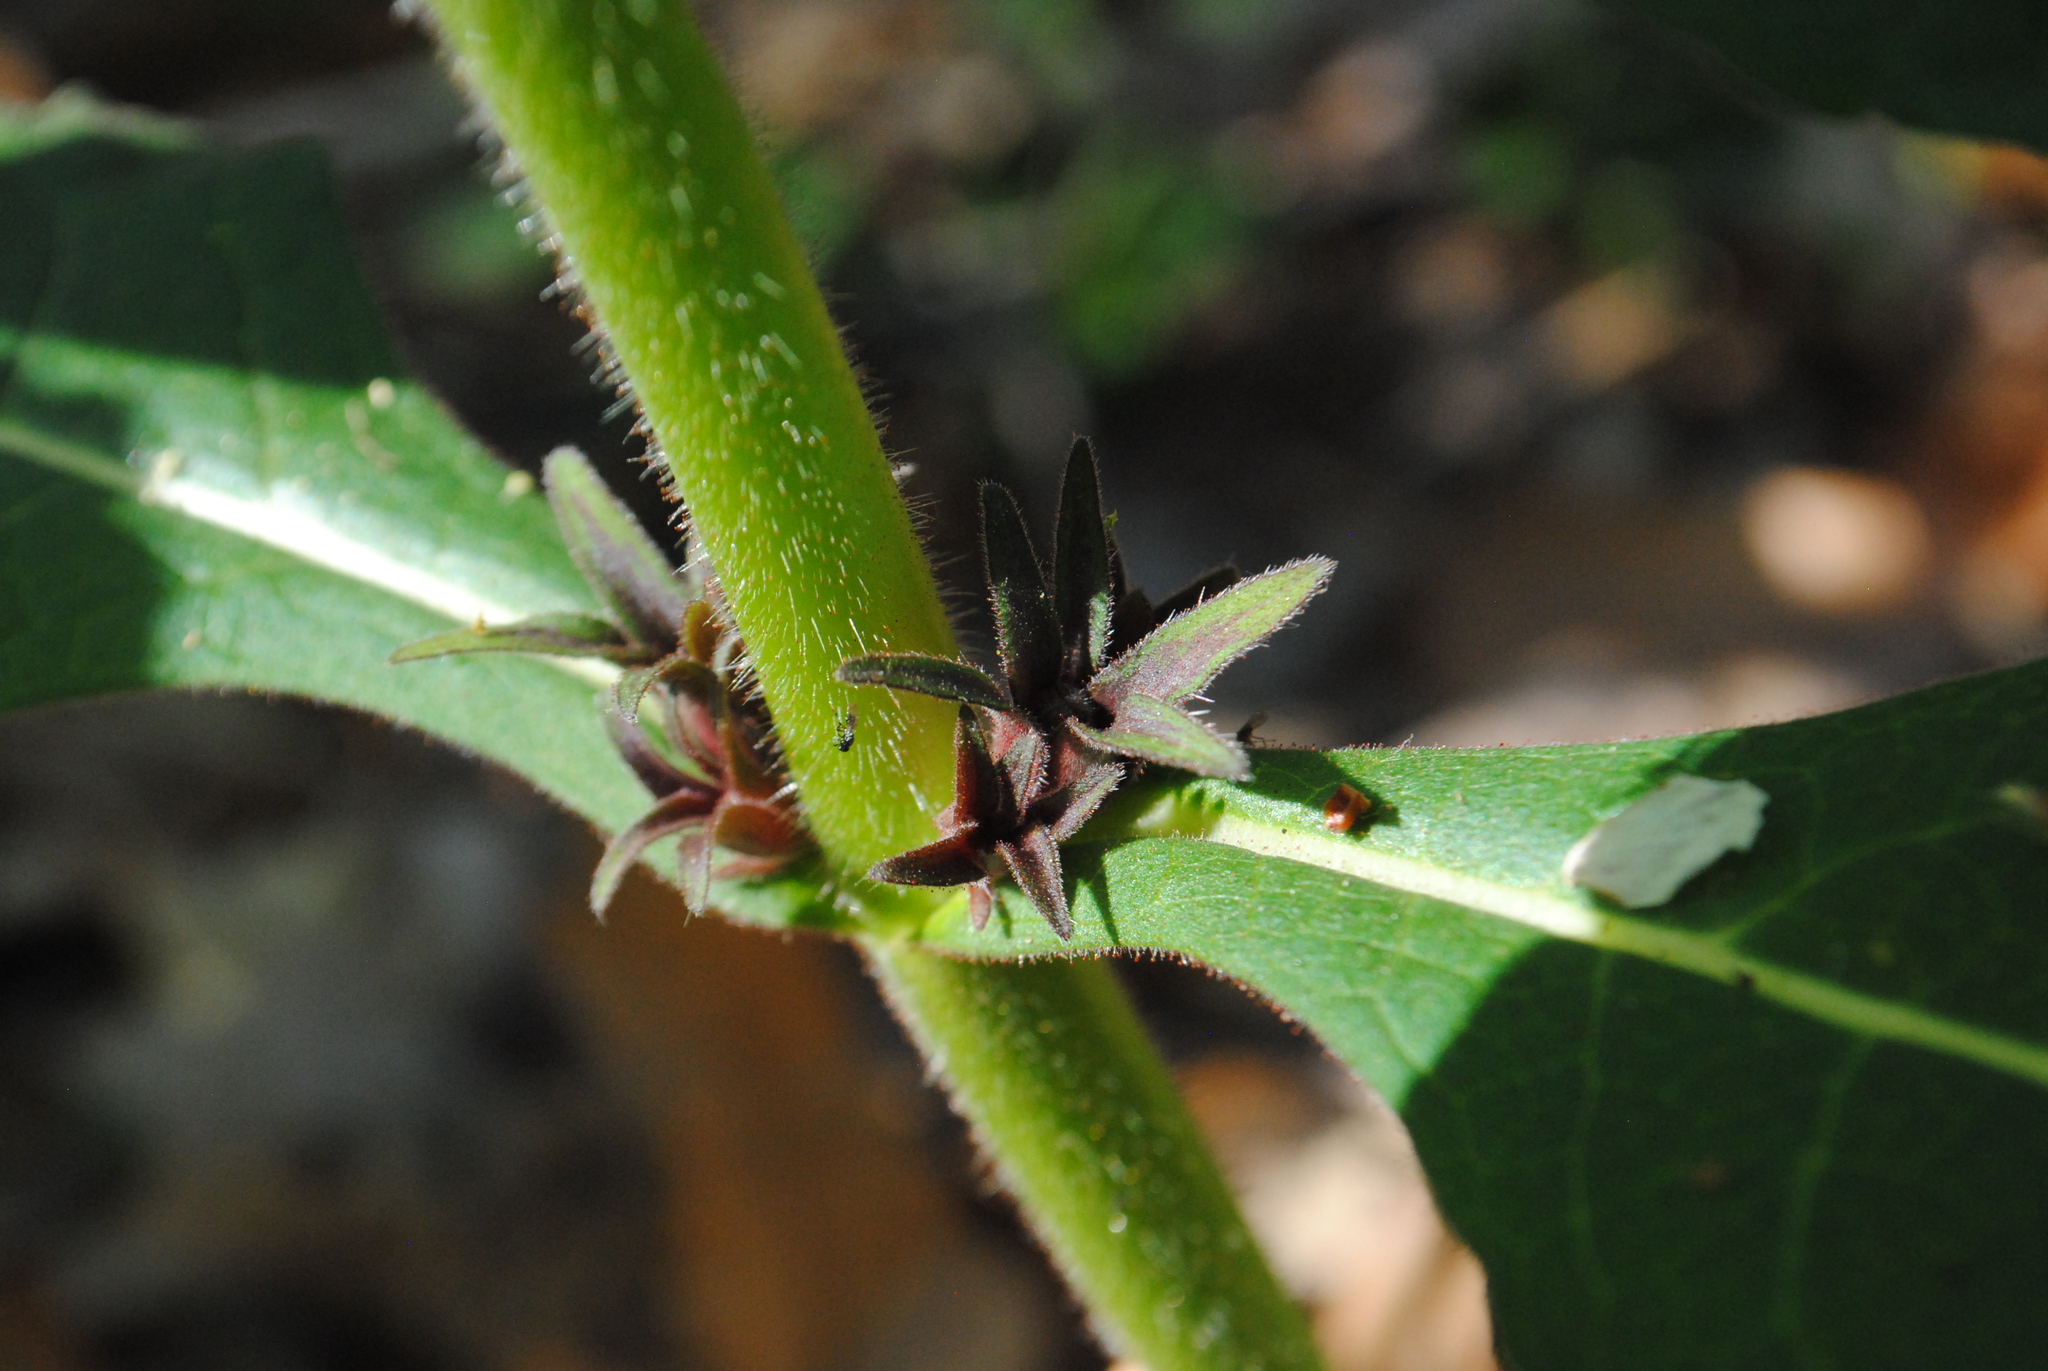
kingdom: Plantae
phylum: Tracheophyta
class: Magnoliopsida
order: Dipsacales
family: Caprifoliaceae
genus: Triosteum
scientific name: Triosteum aurantiacum
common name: Coffee tinker's-weed
